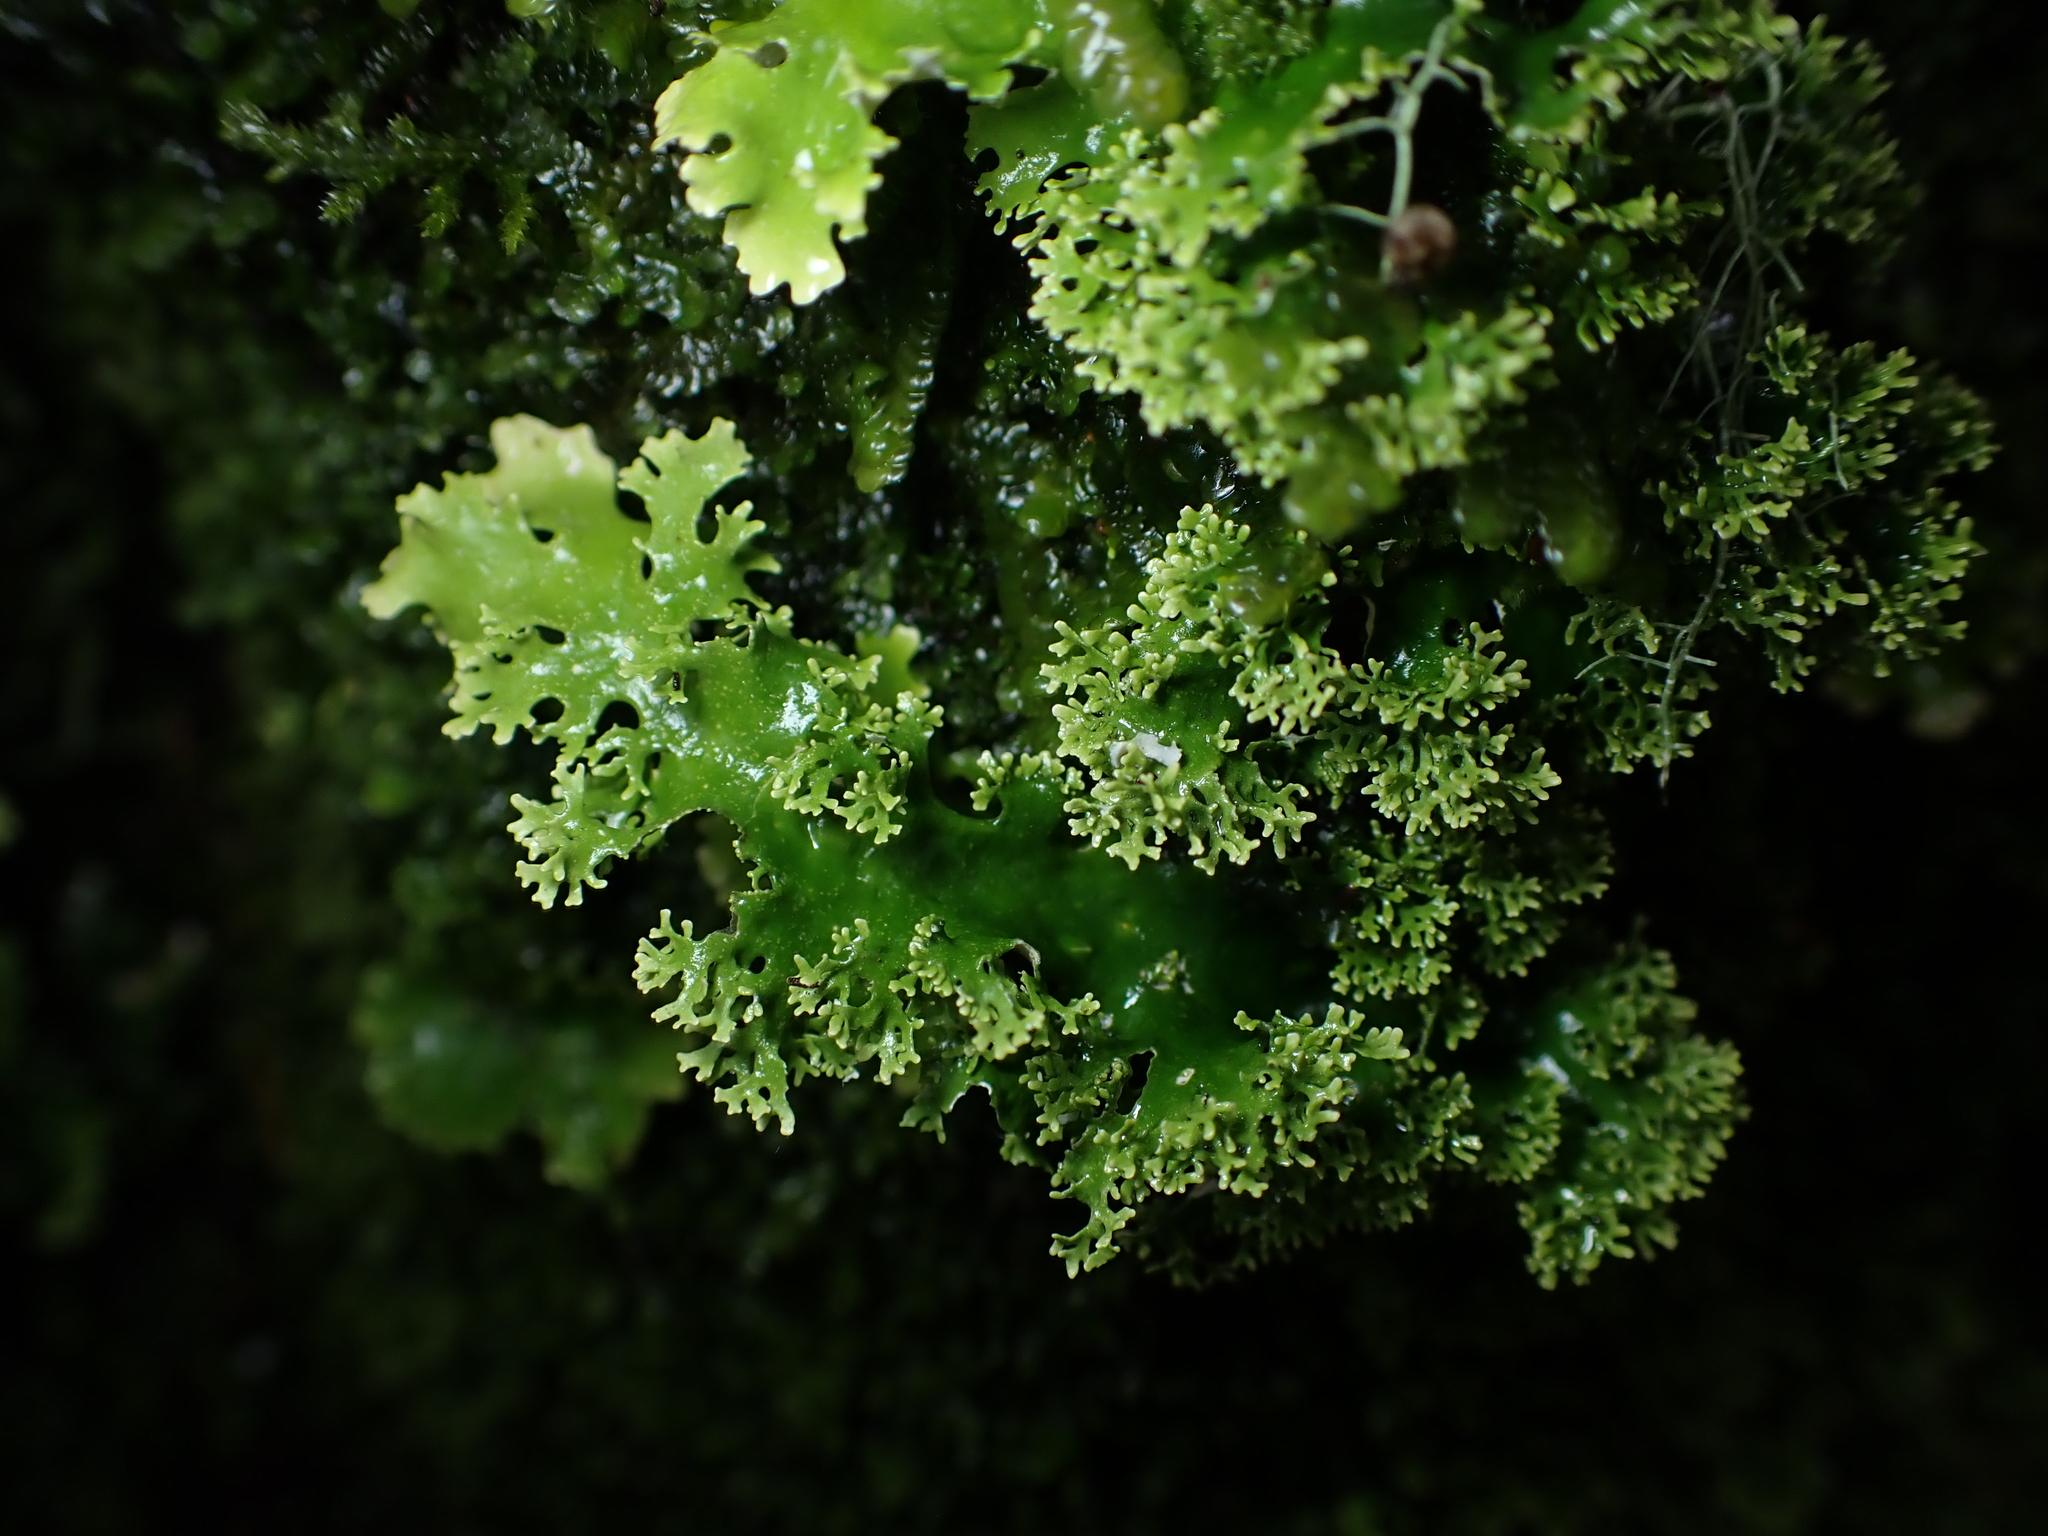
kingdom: Fungi
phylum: Ascomycota
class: Lecanoromycetes
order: Peltigerales
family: Lobariaceae
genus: Sticta
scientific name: Sticta filix
